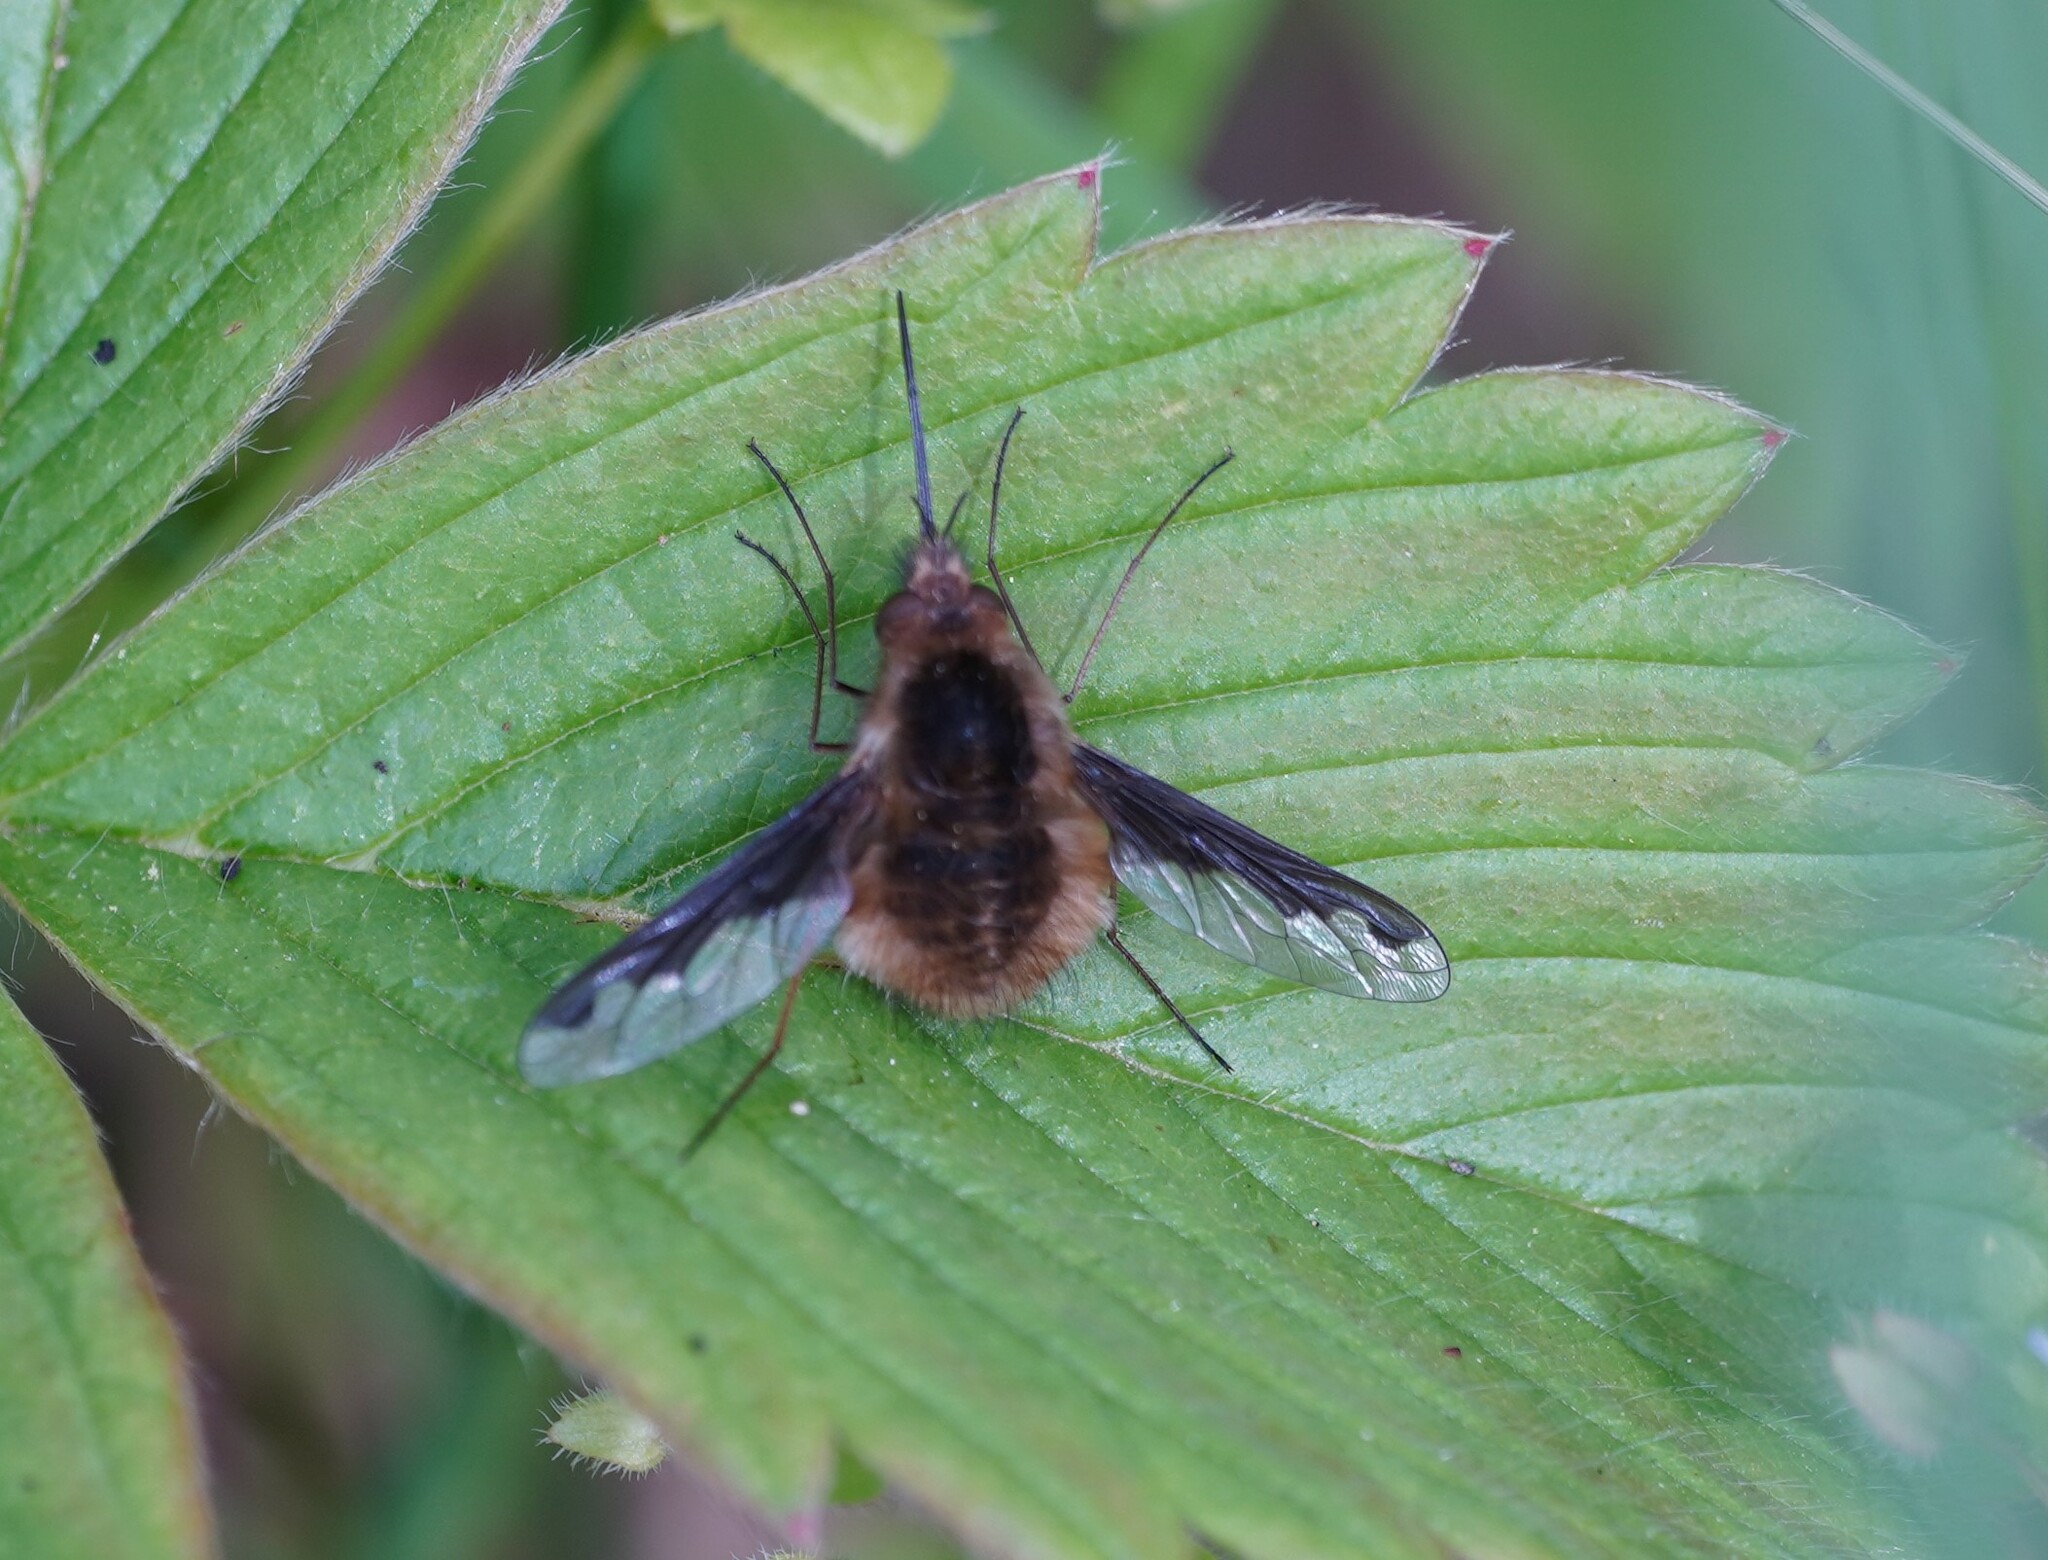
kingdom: Animalia
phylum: Arthropoda
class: Insecta
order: Diptera
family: Bombyliidae
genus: Bombylius
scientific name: Bombylius major
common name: Bee fly
